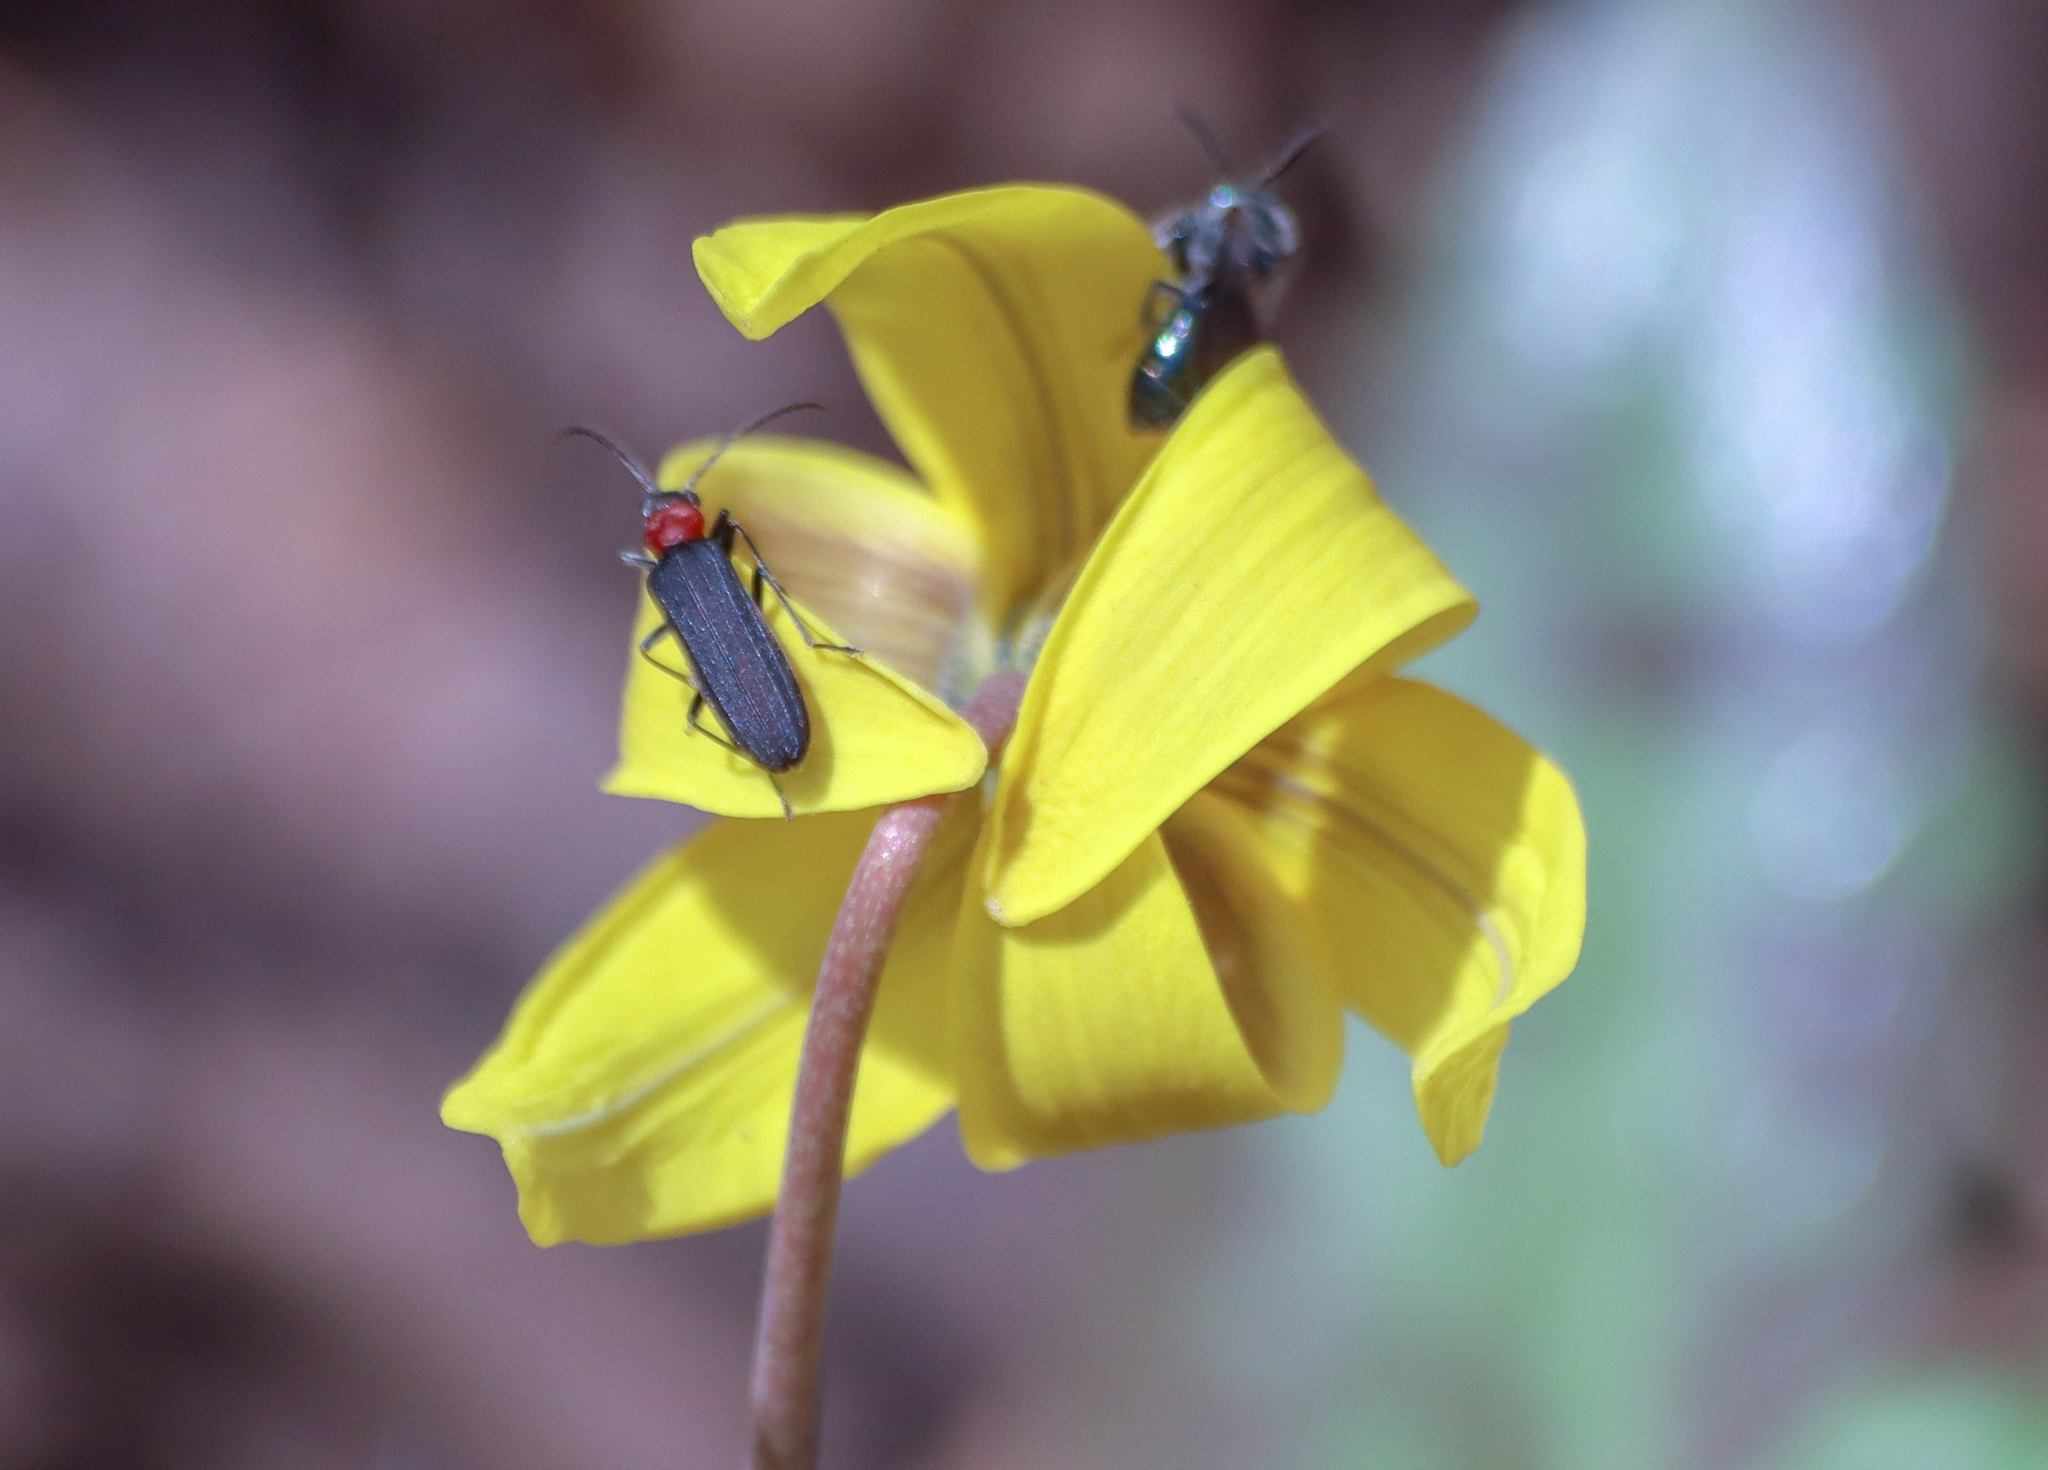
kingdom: Animalia
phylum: Arthropoda
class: Insecta
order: Coleoptera
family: Oedemeridae
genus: Ischnomera
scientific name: Ischnomera
